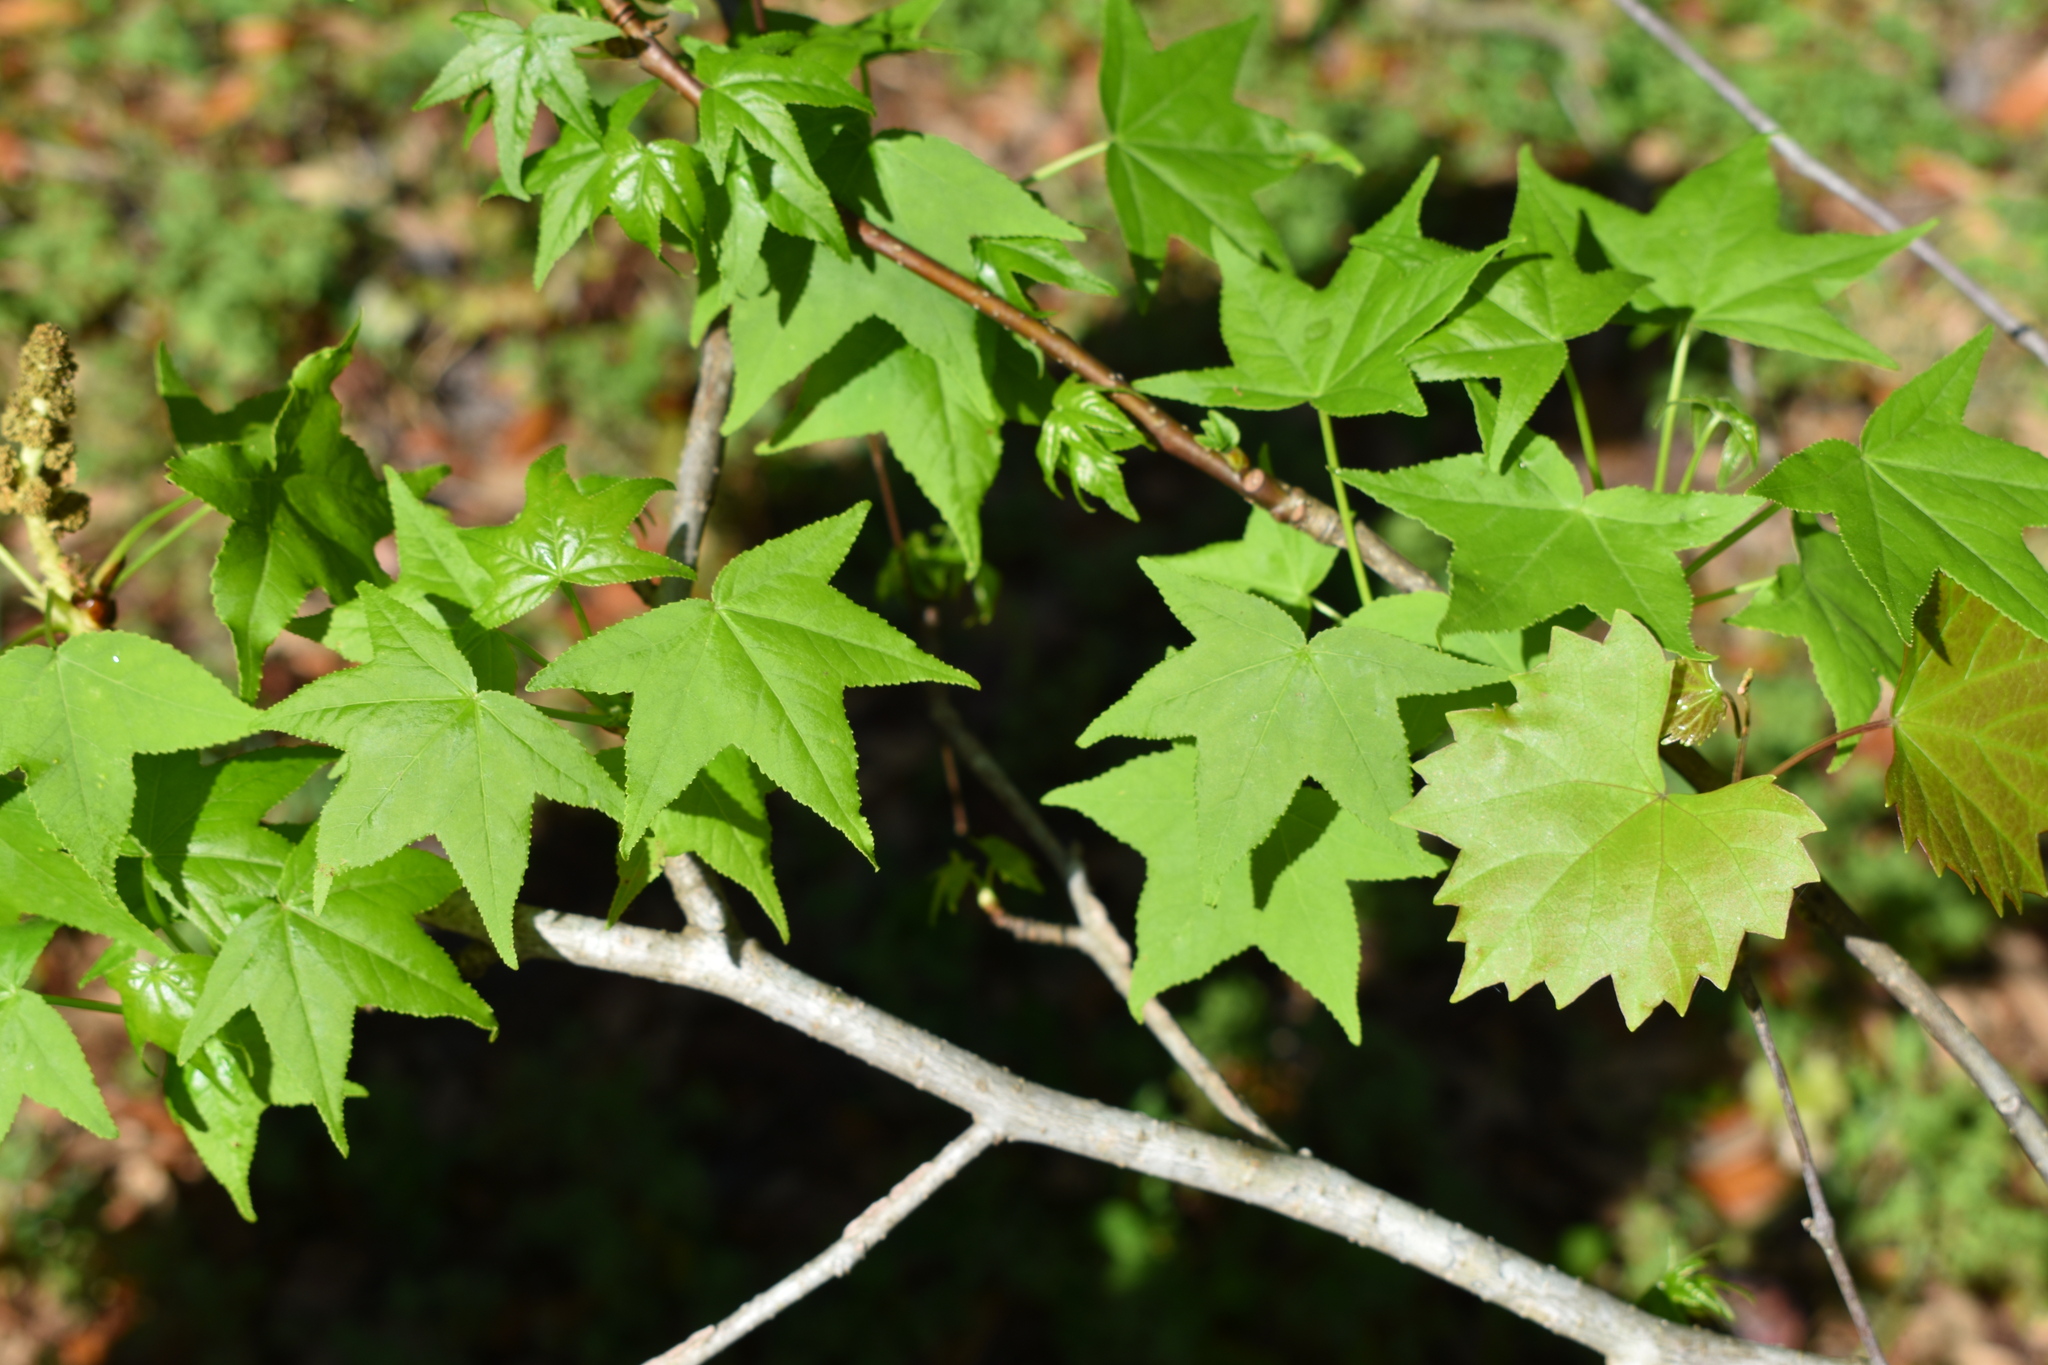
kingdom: Plantae
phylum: Tracheophyta
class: Magnoliopsida
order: Saxifragales
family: Altingiaceae
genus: Liquidambar
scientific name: Liquidambar styraciflua
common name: Sweet gum
